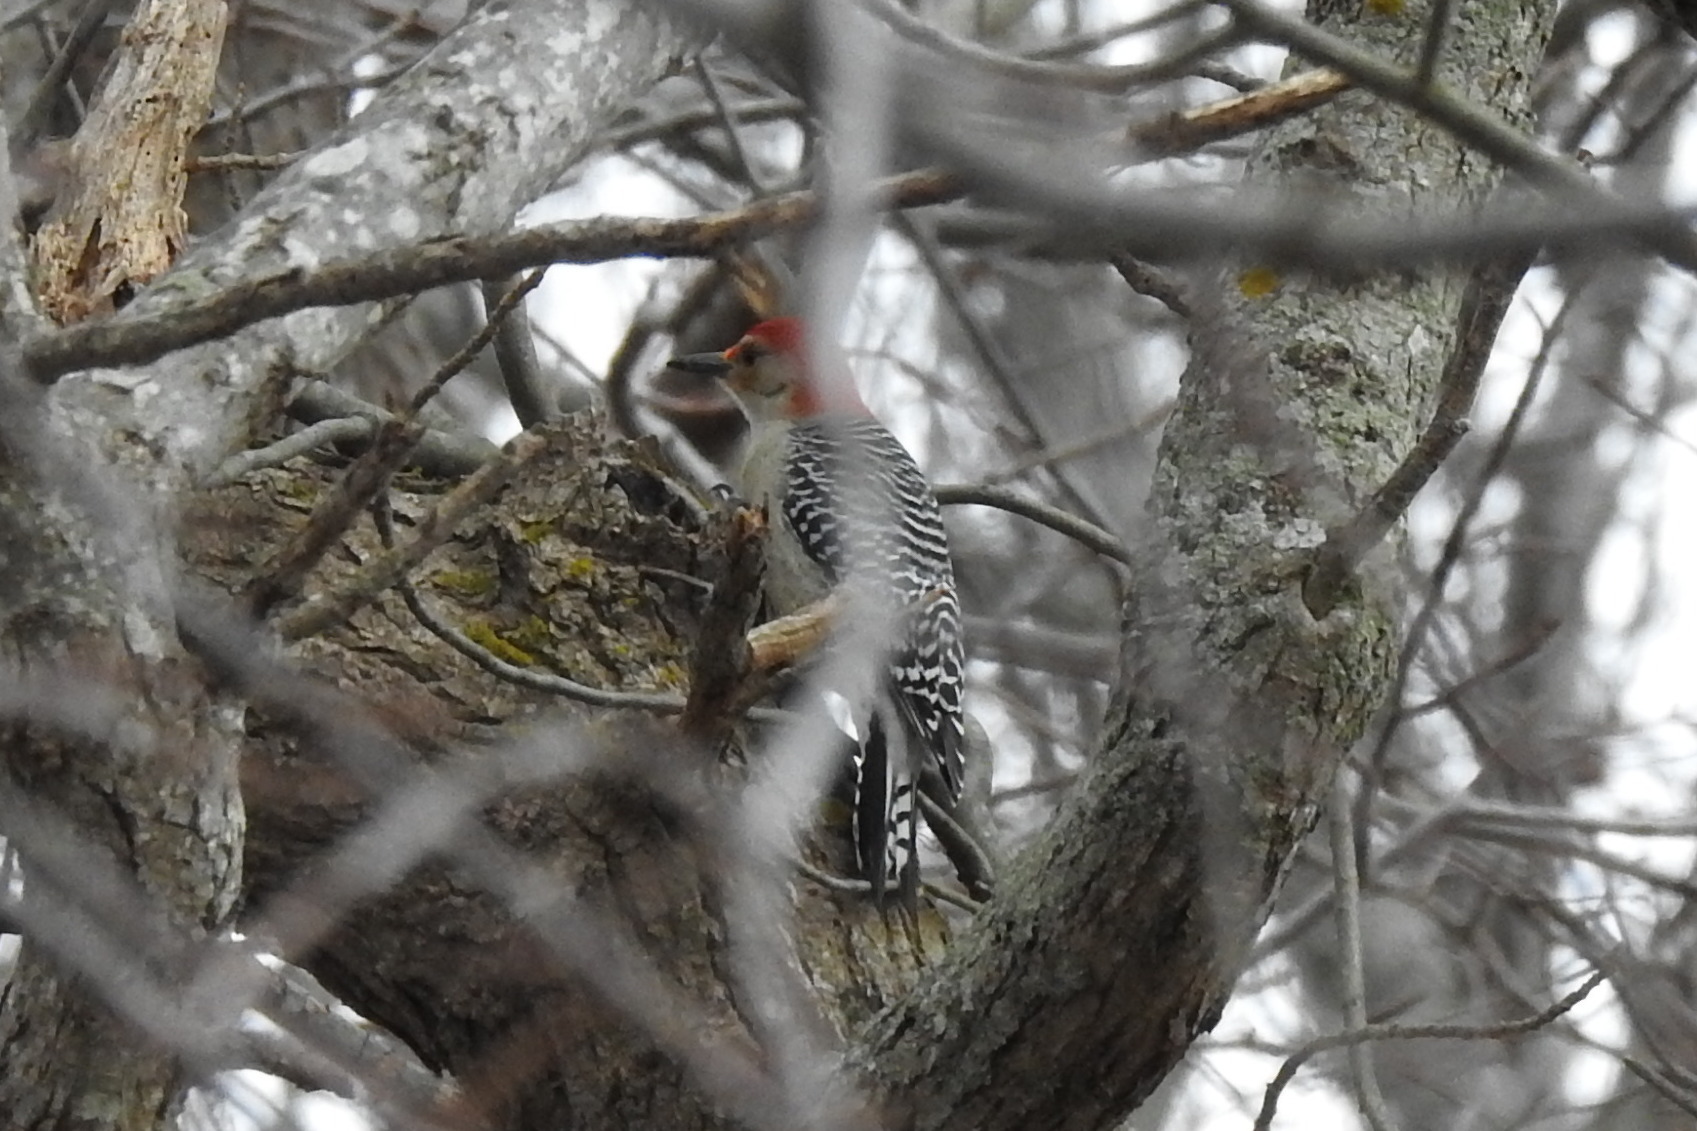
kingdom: Animalia
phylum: Chordata
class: Aves
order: Piciformes
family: Picidae
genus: Melanerpes
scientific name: Melanerpes carolinus
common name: Red-bellied woodpecker
